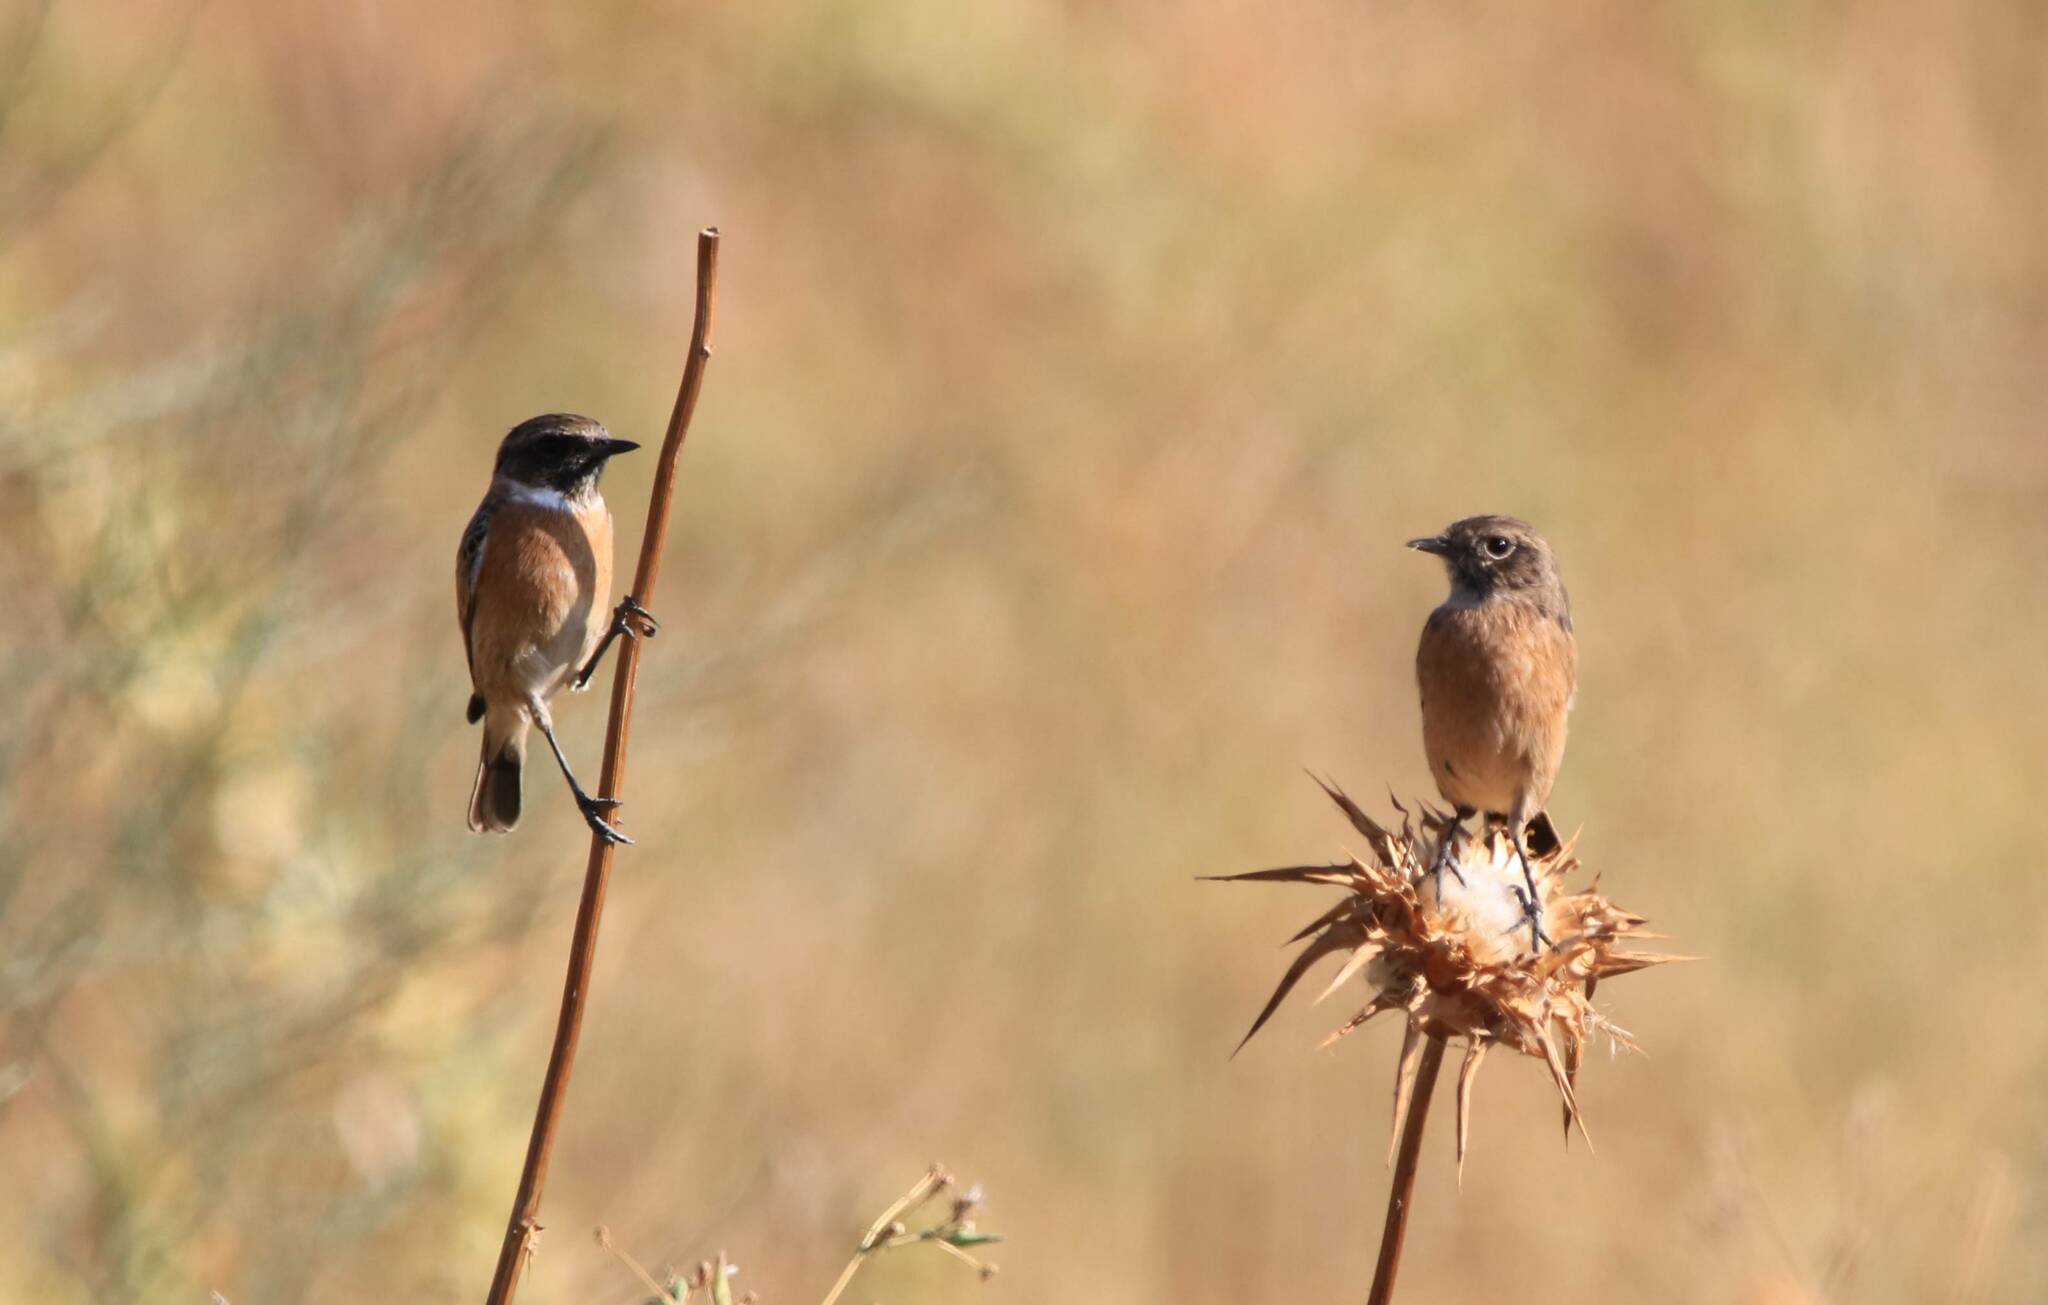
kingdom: Animalia
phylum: Chordata
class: Aves
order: Passeriformes
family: Muscicapidae
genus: Saxicola
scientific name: Saxicola rubicola
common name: European stonechat
